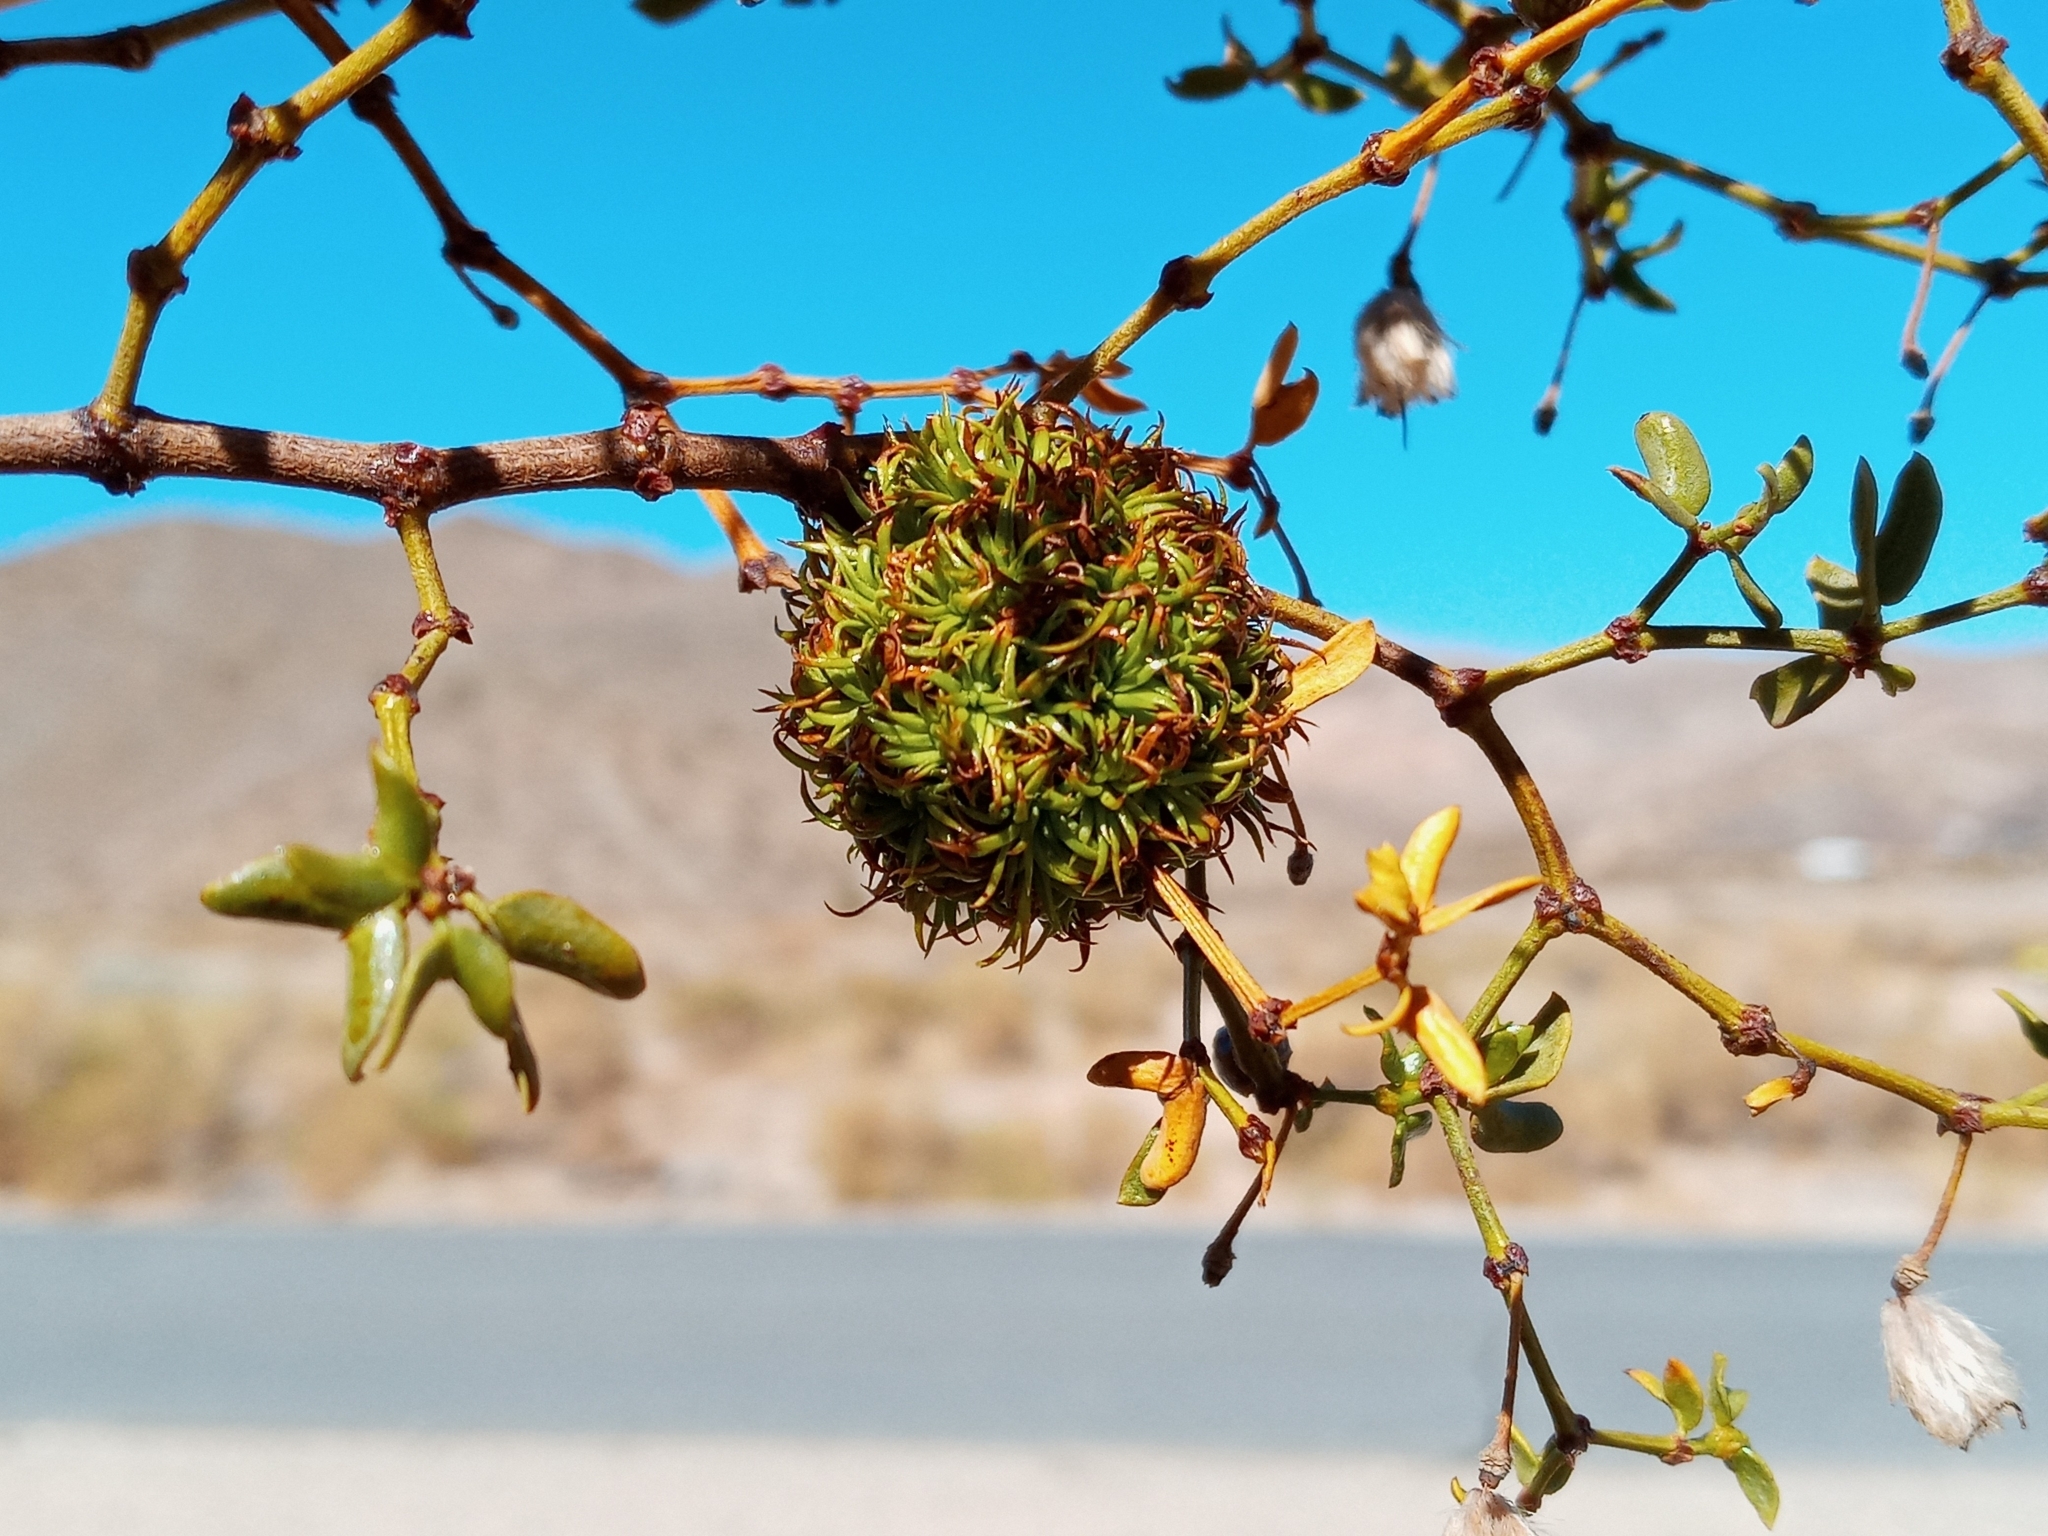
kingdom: Animalia
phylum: Arthropoda
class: Insecta
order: Diptera
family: Cecidomyiidae
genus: Asphondylia
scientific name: Asphondylia auripila
